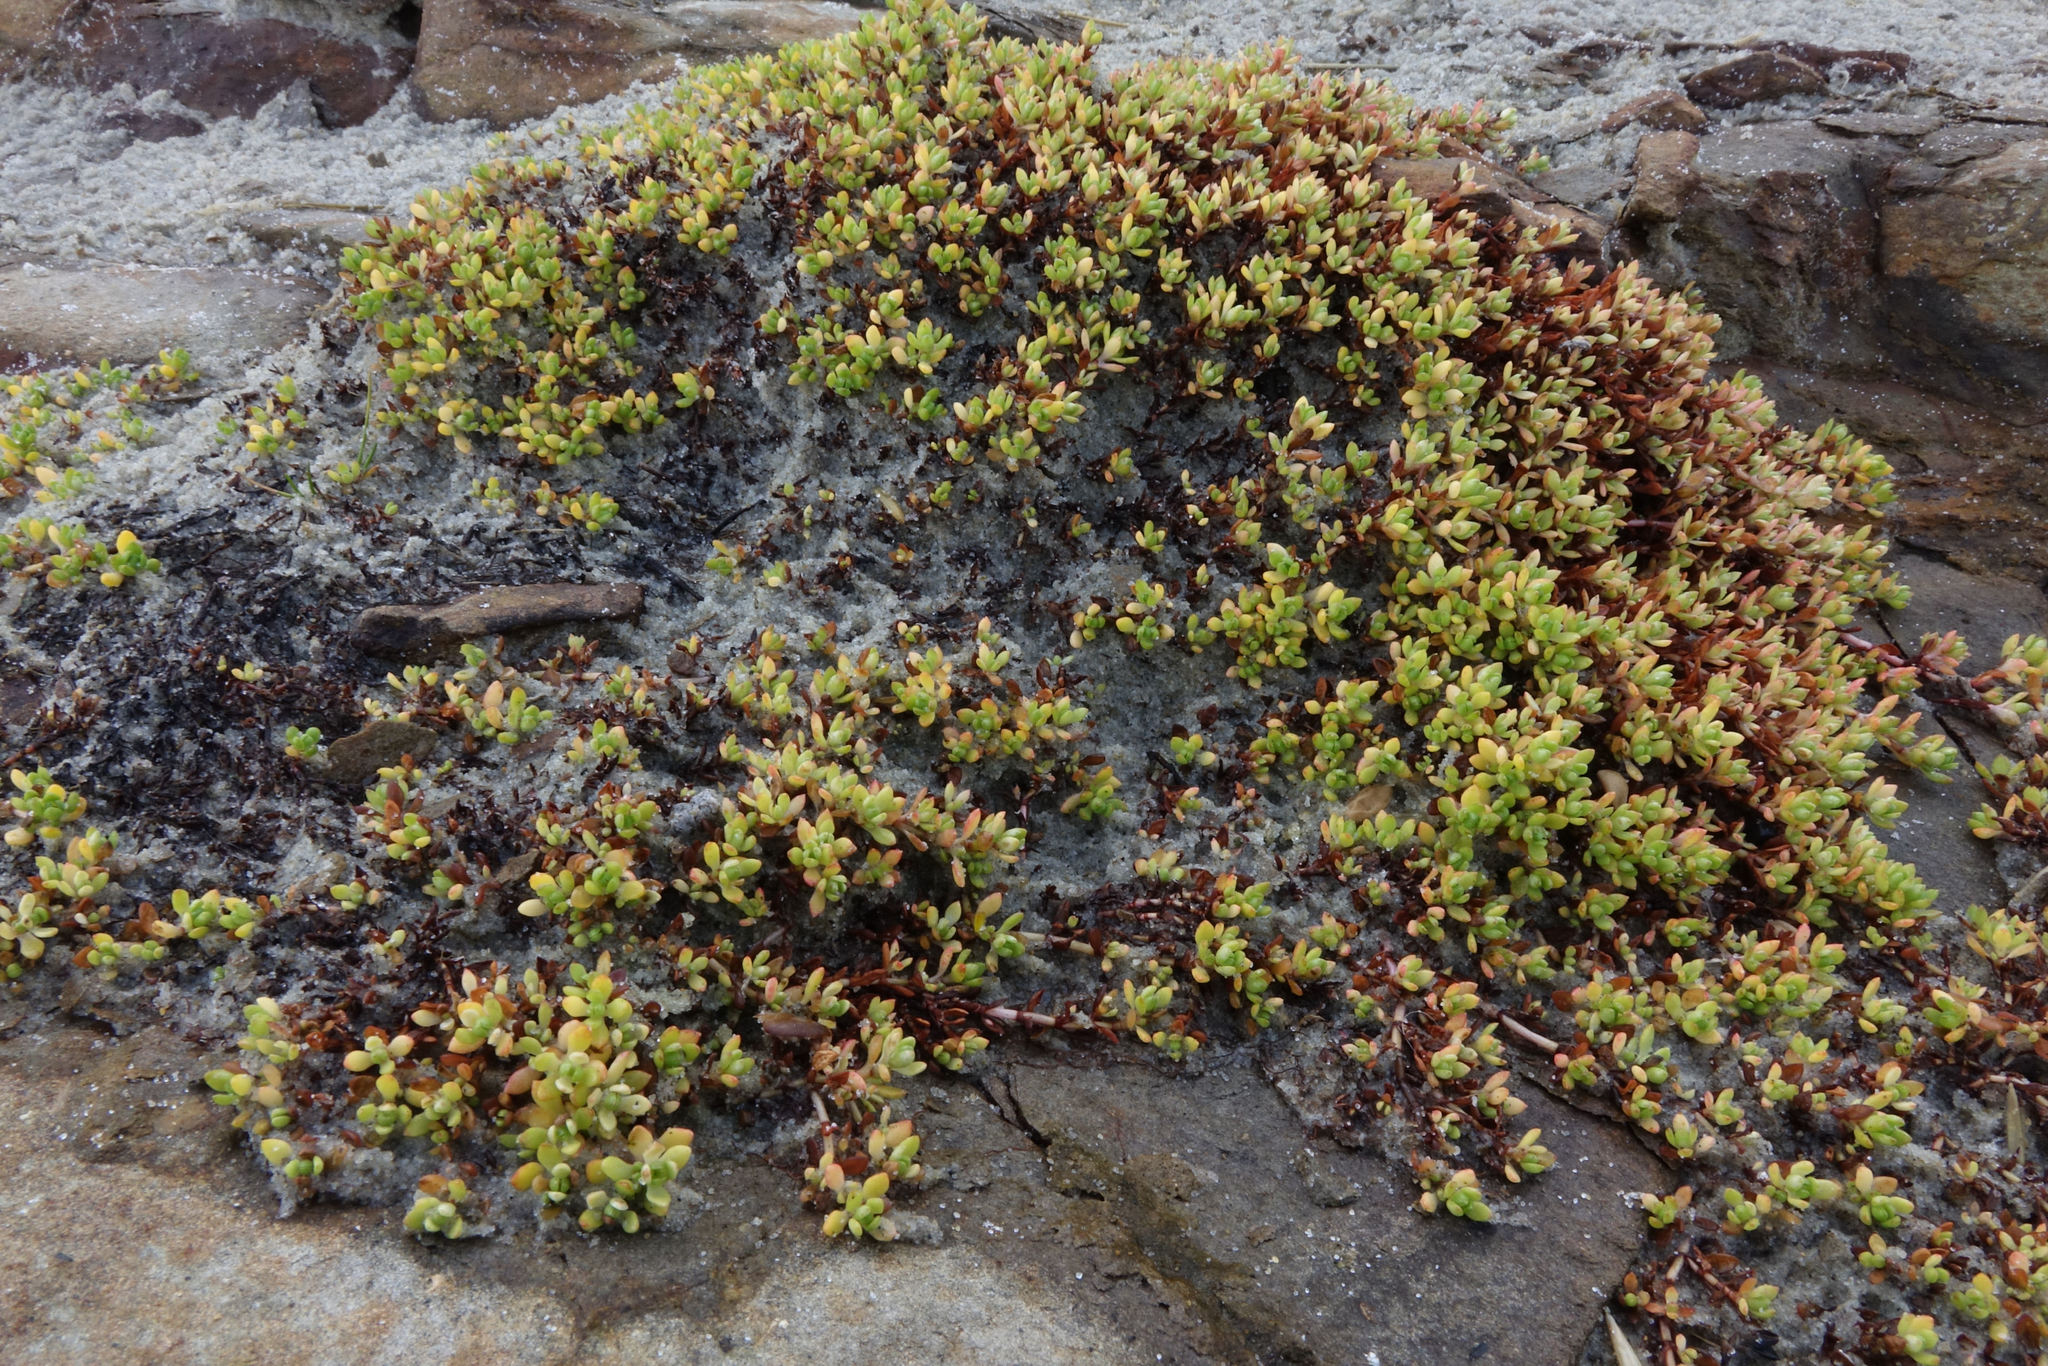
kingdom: Plantae
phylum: Tracheophyta
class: Magnoliopsida
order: Saxifragales
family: Crassulaceae
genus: Crassula
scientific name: Crassula moschata
